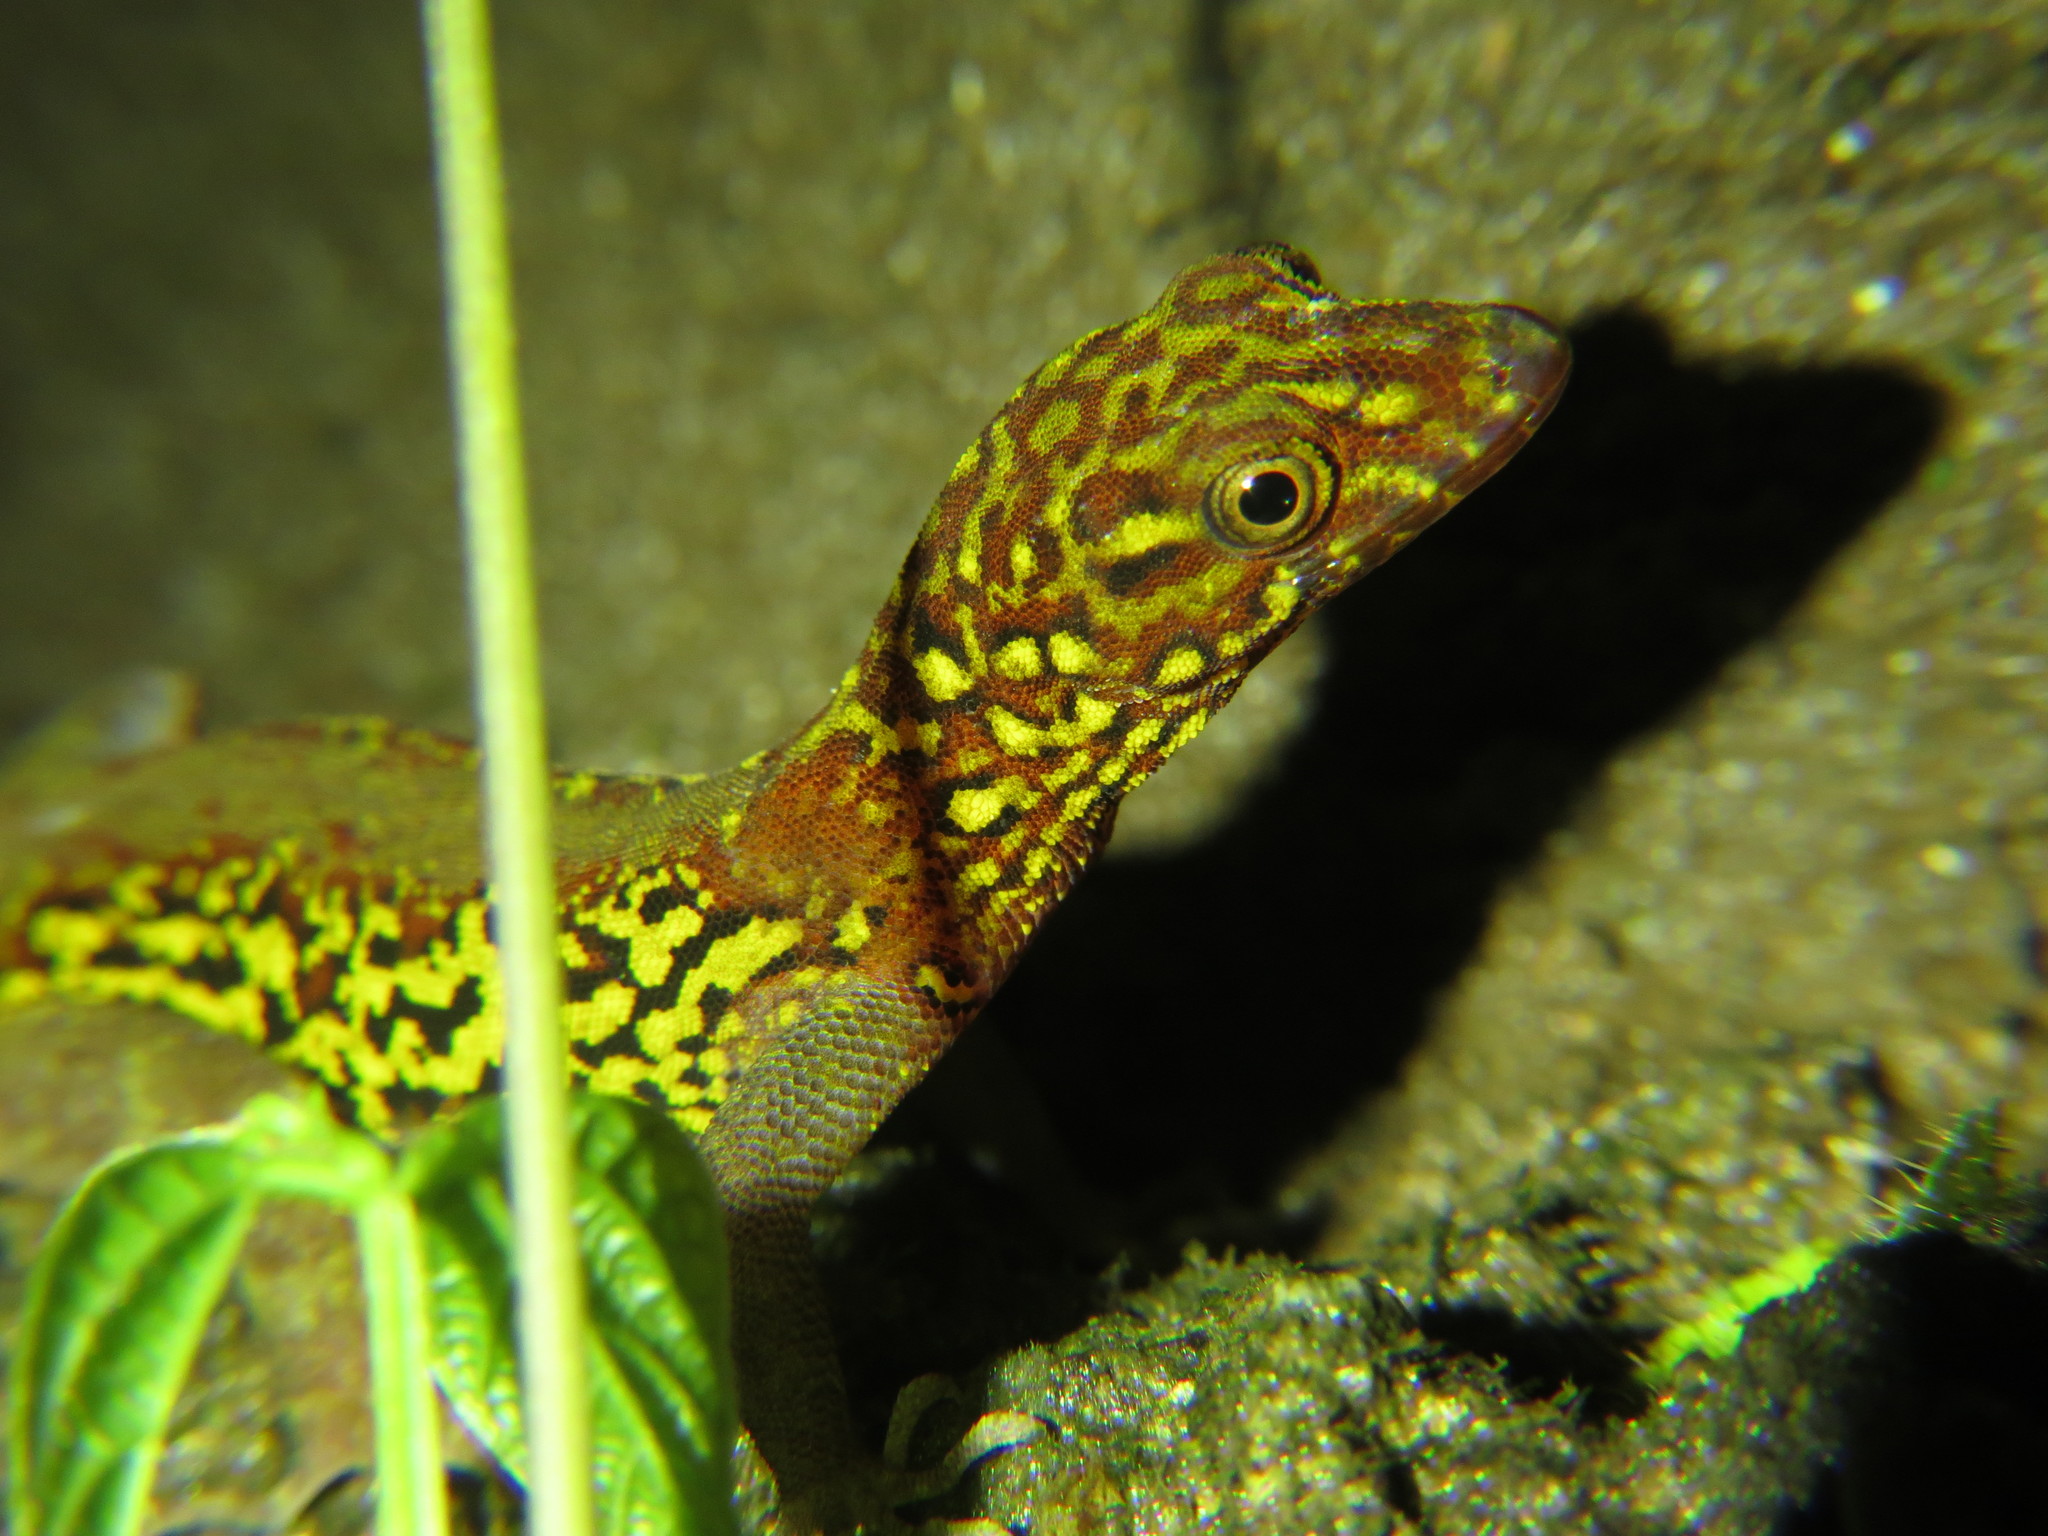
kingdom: Animalia
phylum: Chordata
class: Squamata
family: Sphaerodactylidae
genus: Gonatodes
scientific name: Gonatodes ceciliae
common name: Brilliant south american gecko
